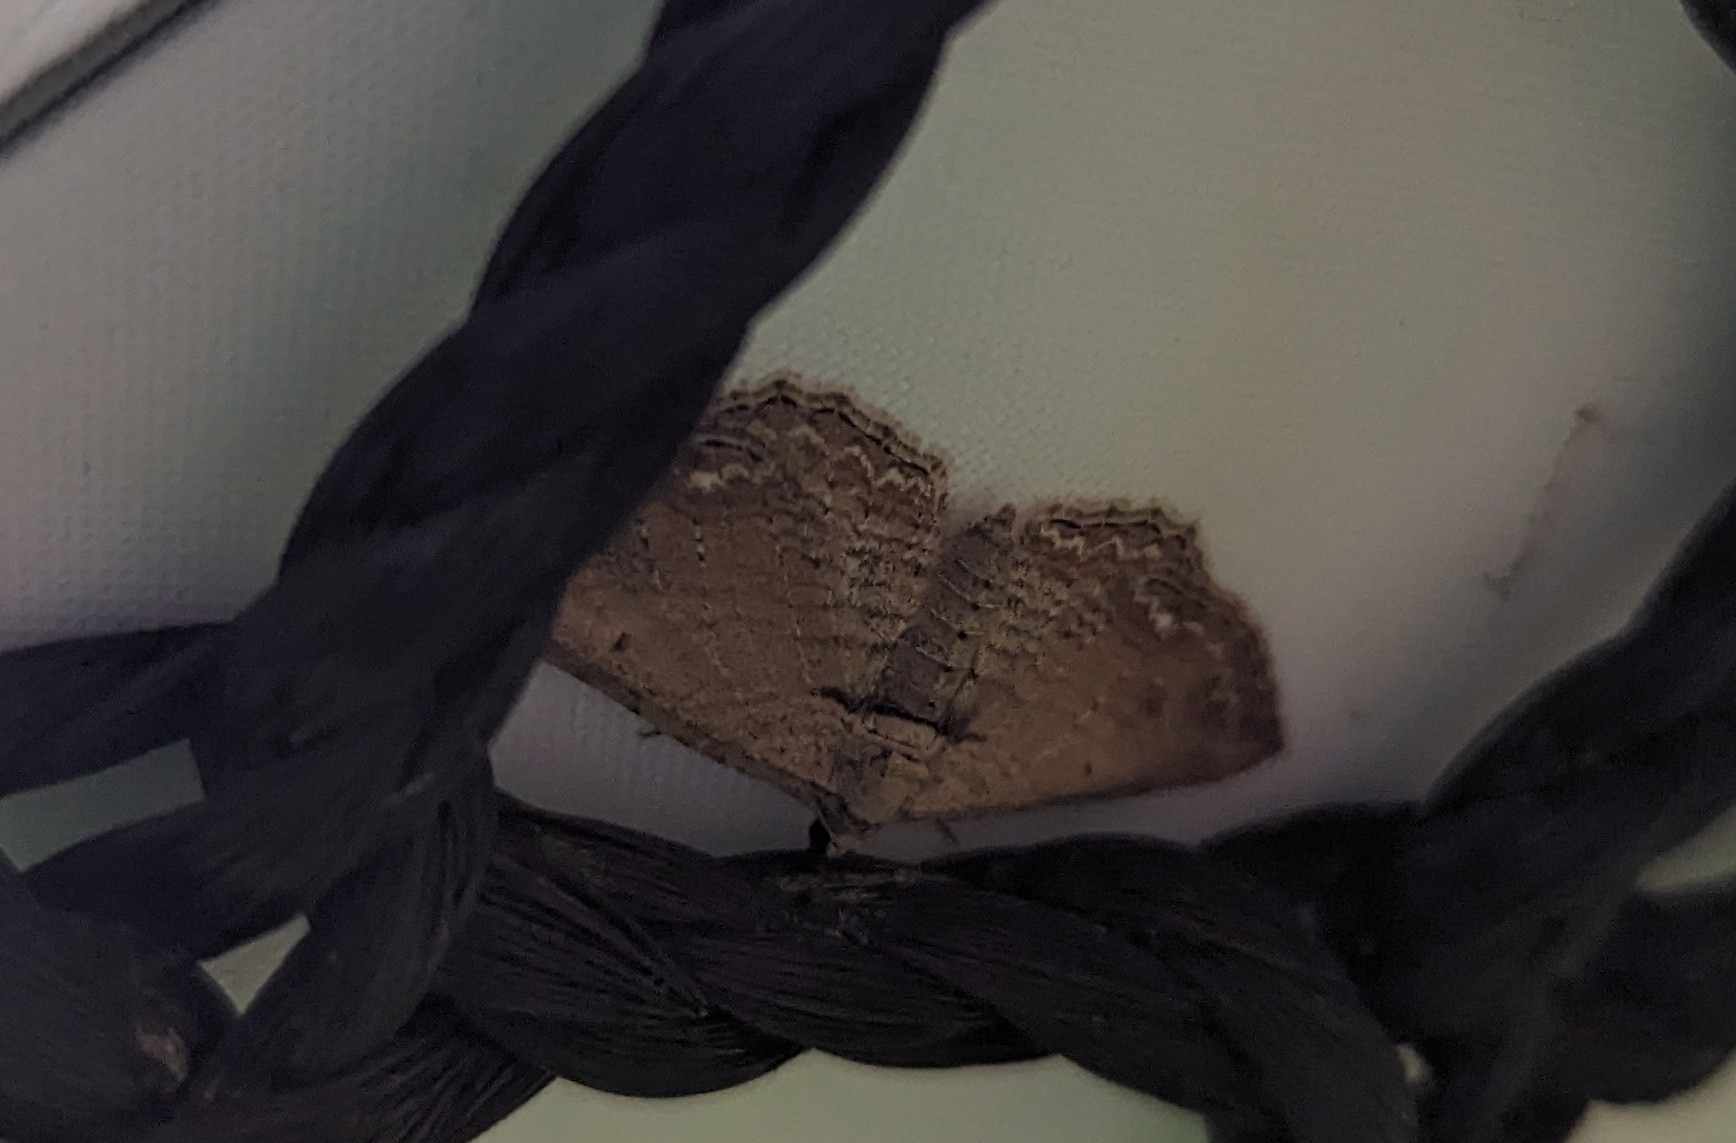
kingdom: Animalia
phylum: Arthropoda
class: Insecta
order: Lepidoptera
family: Geometridae
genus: Horisme
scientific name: Horisme tersata
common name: Fern
